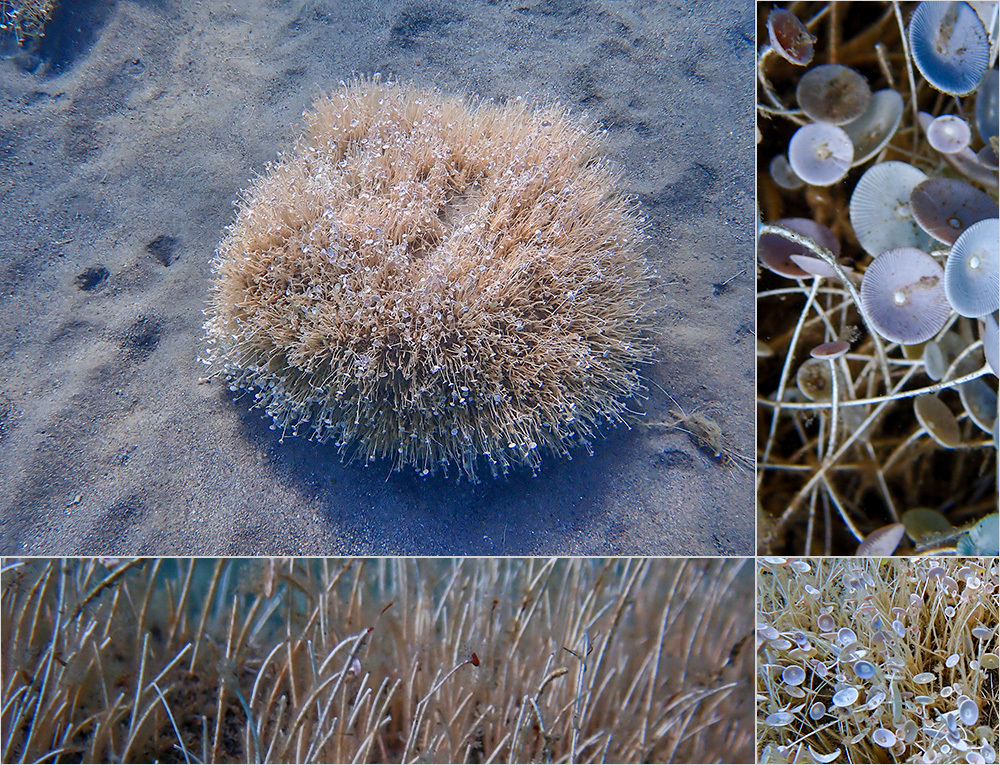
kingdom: Plantae
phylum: Chlorophyta
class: Ulvophyceae
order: Dasycladales
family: Polyphysaceae
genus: Acetabularia
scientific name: Acetabularia acetabulum
